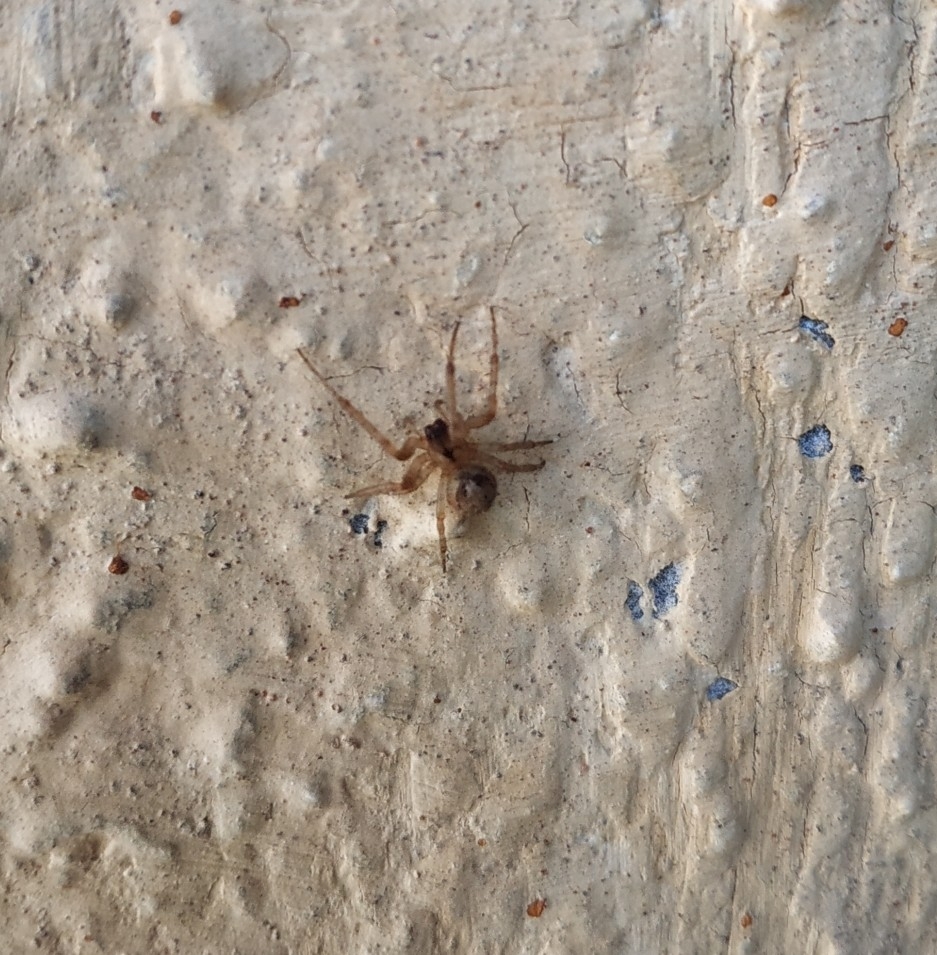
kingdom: Animalia
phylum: Arthropoda
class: Arachnida
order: Araneae
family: Araneidae
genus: Zygiella
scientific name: Zygiella x-notata
